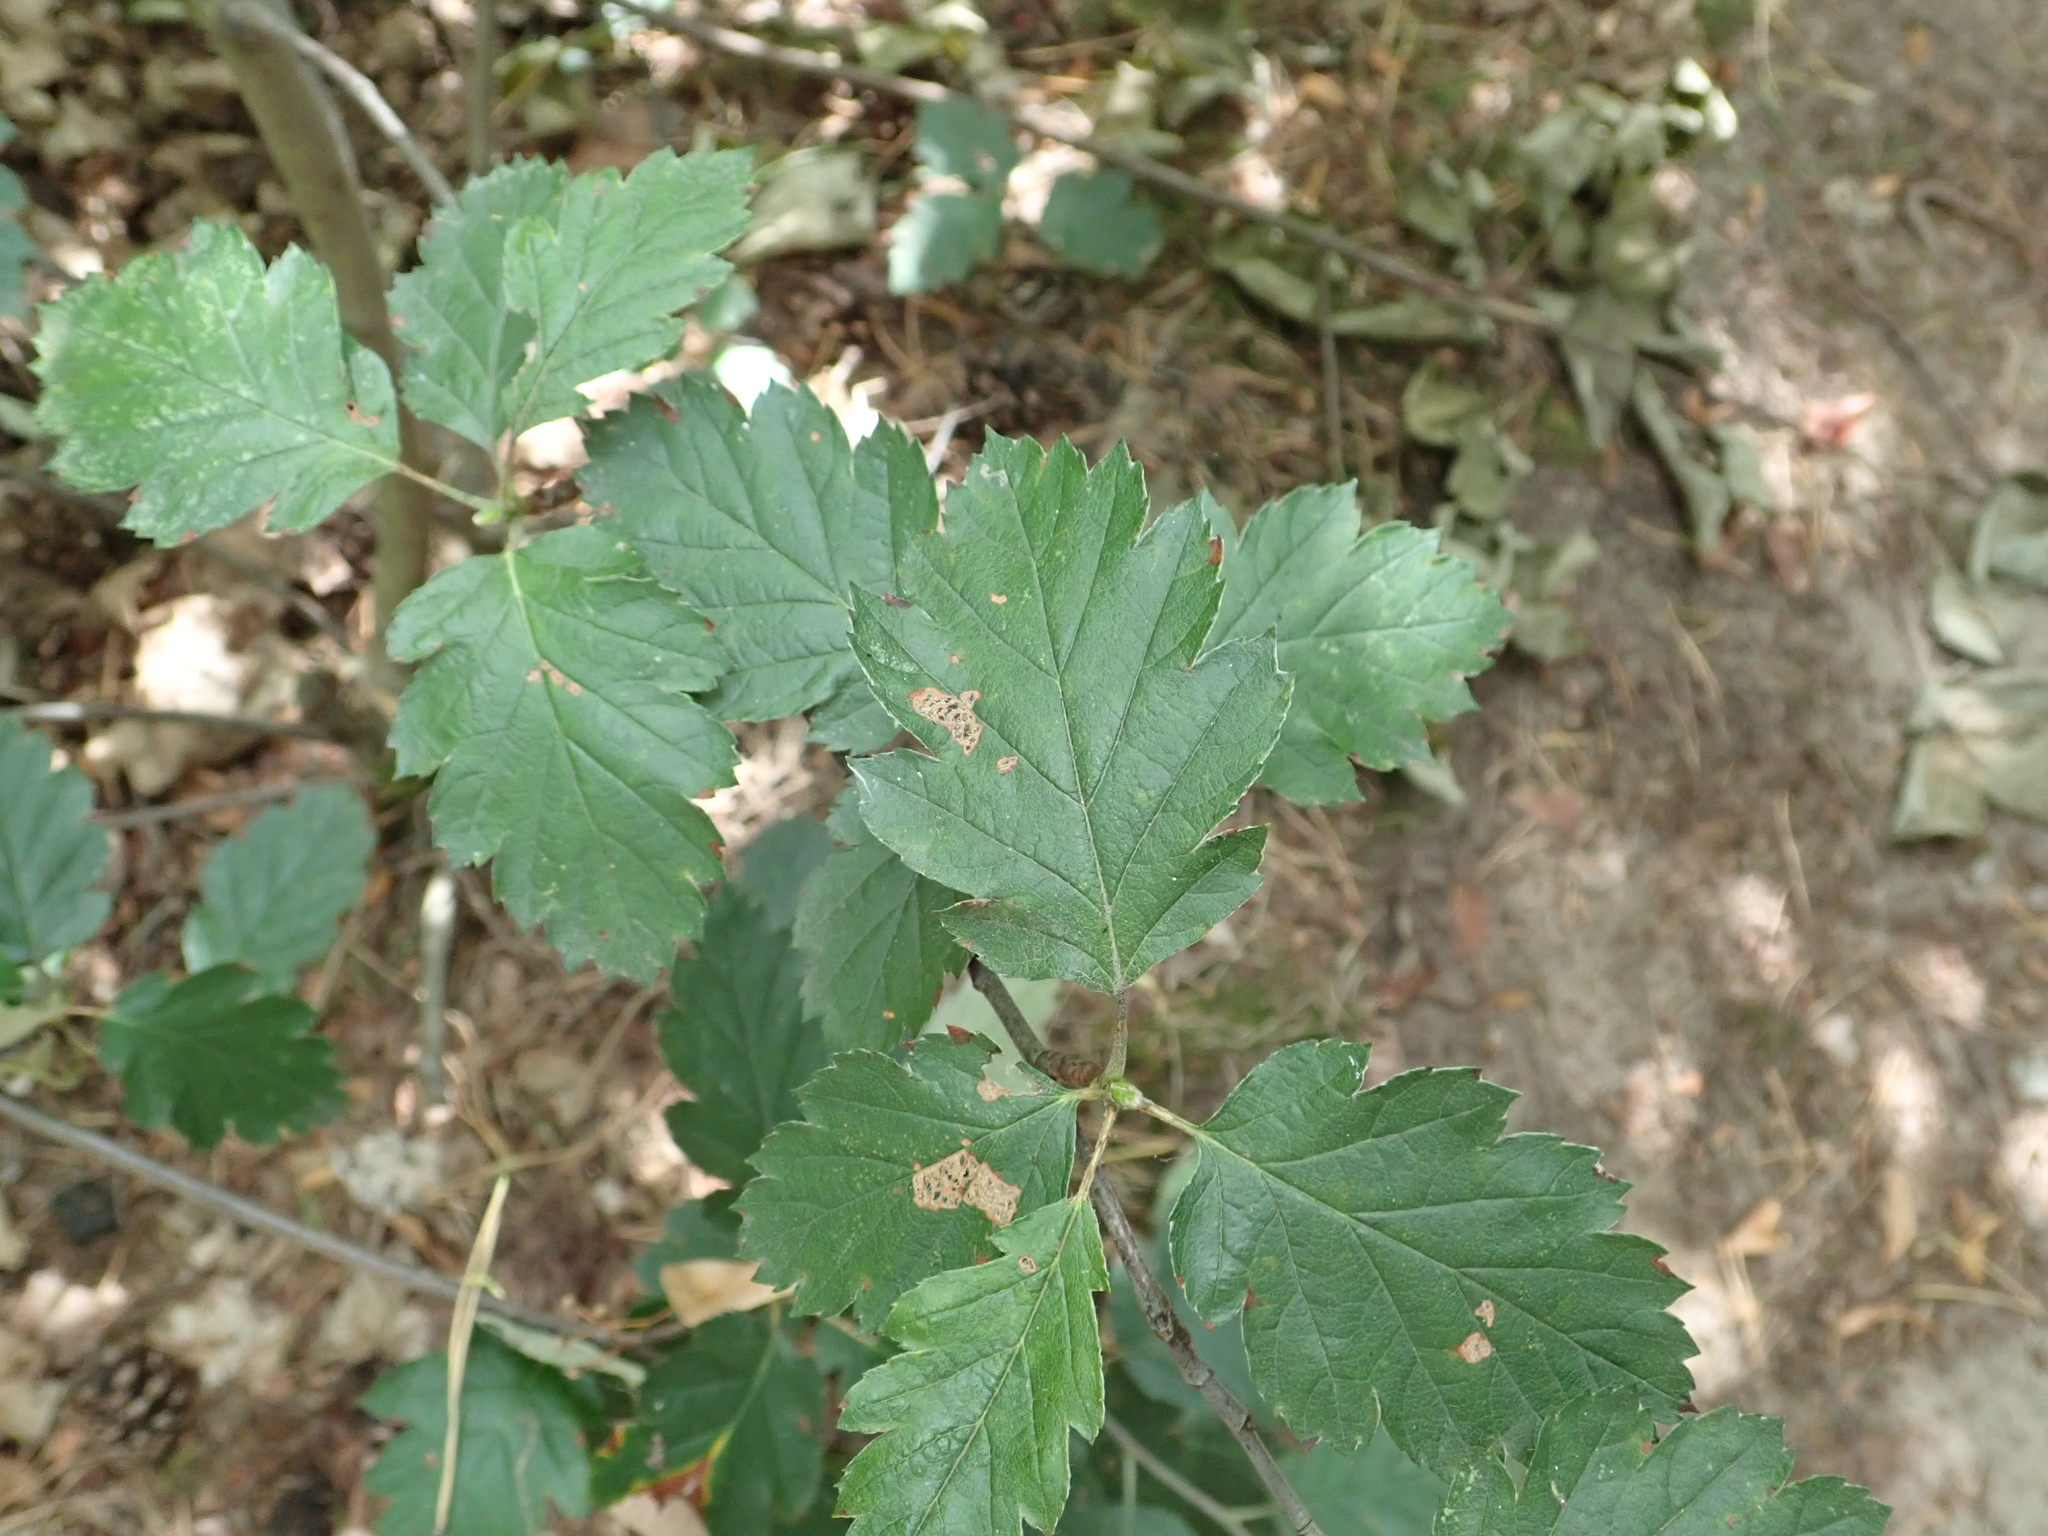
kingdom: Plantae
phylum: Tracheophyta
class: Magnoliopsida
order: Rosales
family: Rosaceae
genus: Scandosorbus
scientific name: Scandosorbus intermedia
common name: Swedish whitebeam
